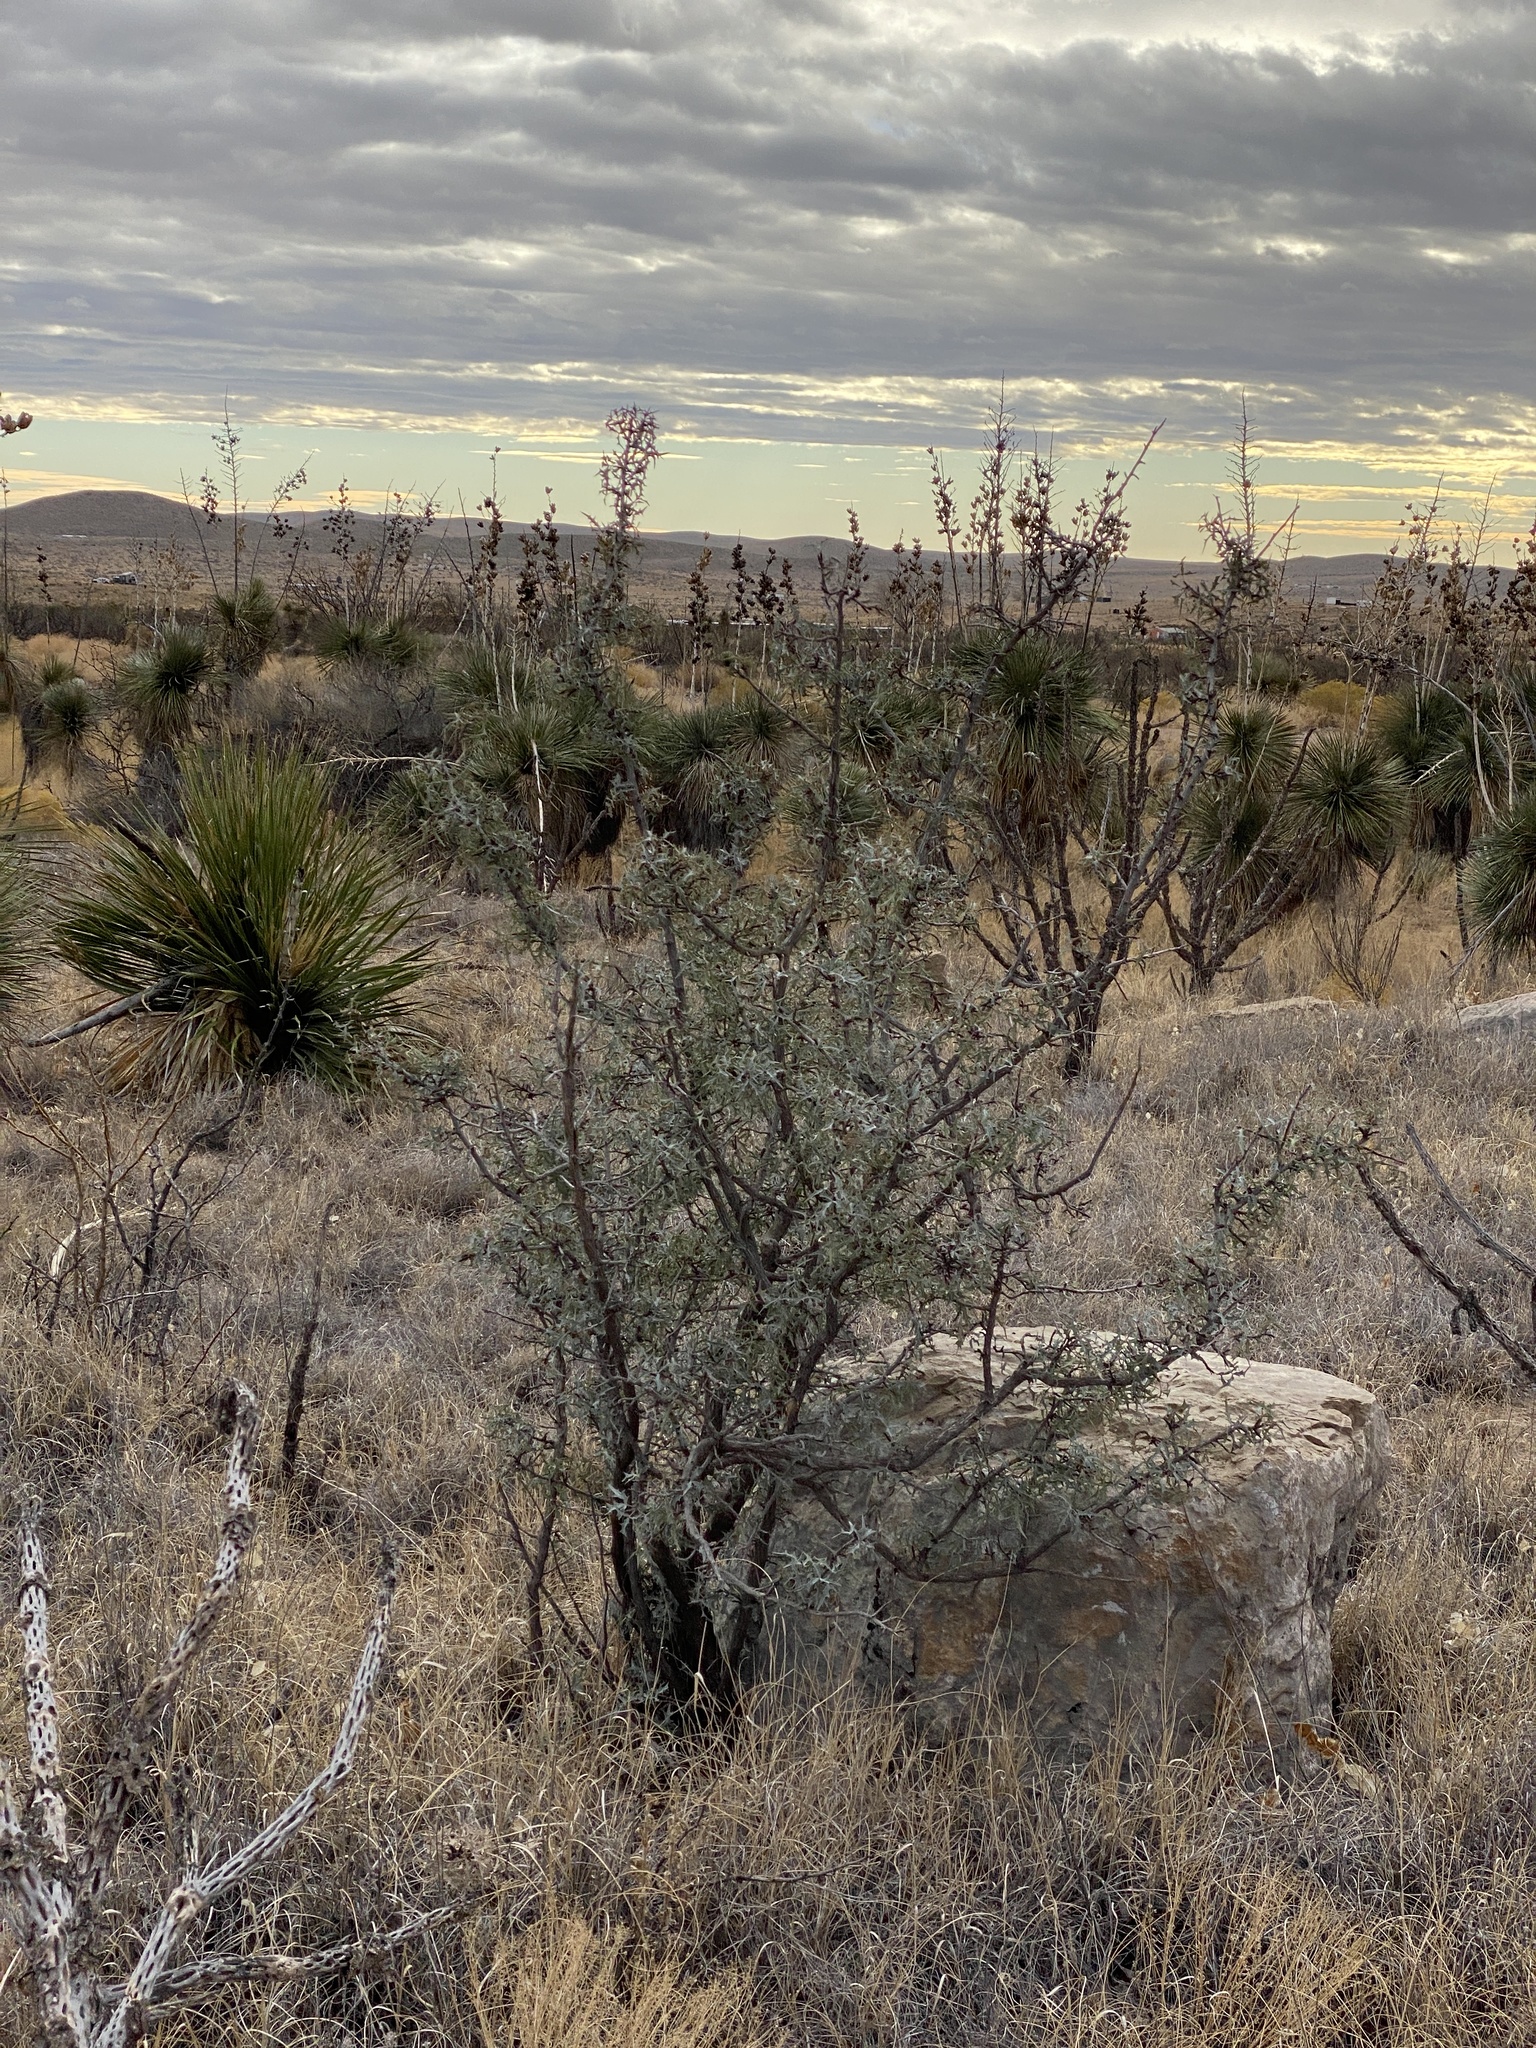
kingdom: Plantae
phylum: Tracheophyta
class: Magnoliopsida
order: Ranunculales
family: Berberidaceae
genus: Alloberberis
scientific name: Alloberberis trifoliolata
